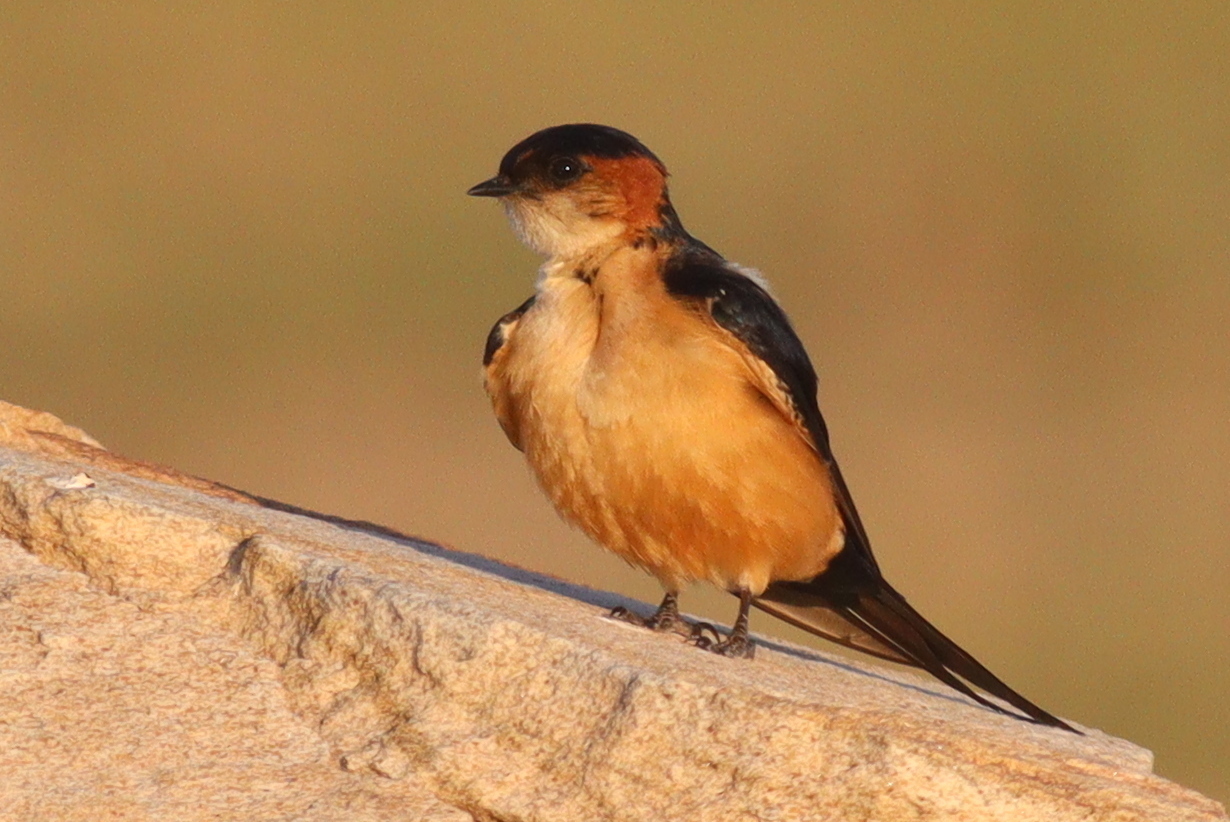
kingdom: Animalia
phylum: Chordata
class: Aves
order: Passeriformes
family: Hirundinidae
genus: Cecropis
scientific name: Cecropis daurica
